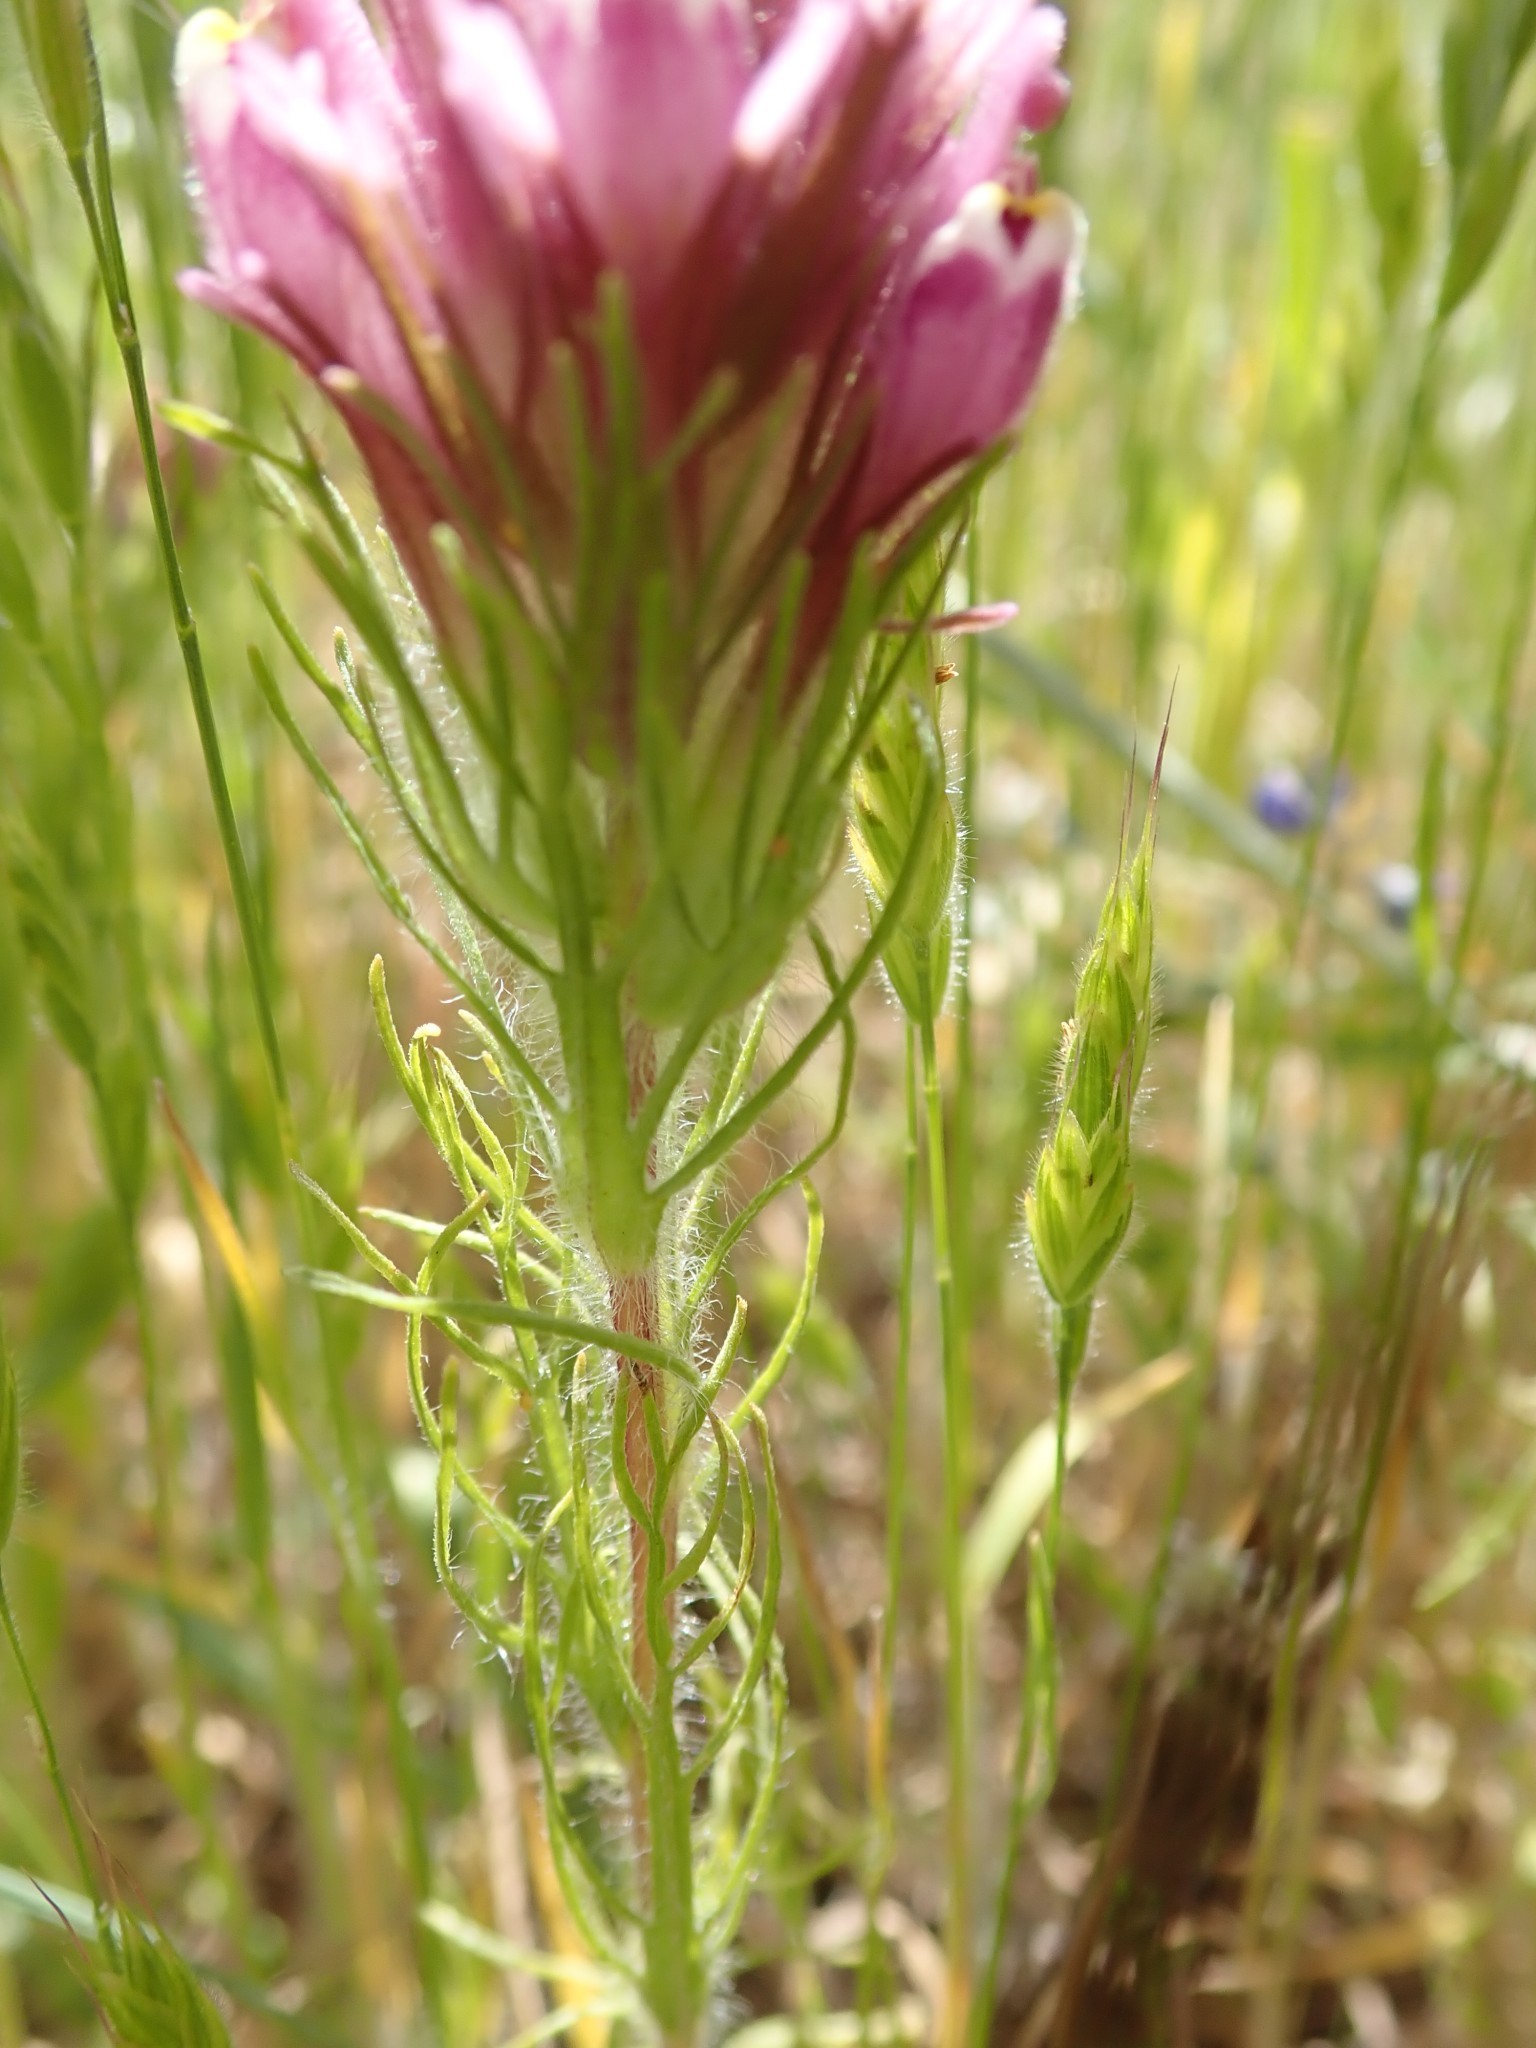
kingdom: Plantae
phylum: Tracheophyta
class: Magnoliopsida
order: Lamiales
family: Orobanchaceae
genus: Castilleja
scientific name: Castilleja exserta
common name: Purple owl-clover
